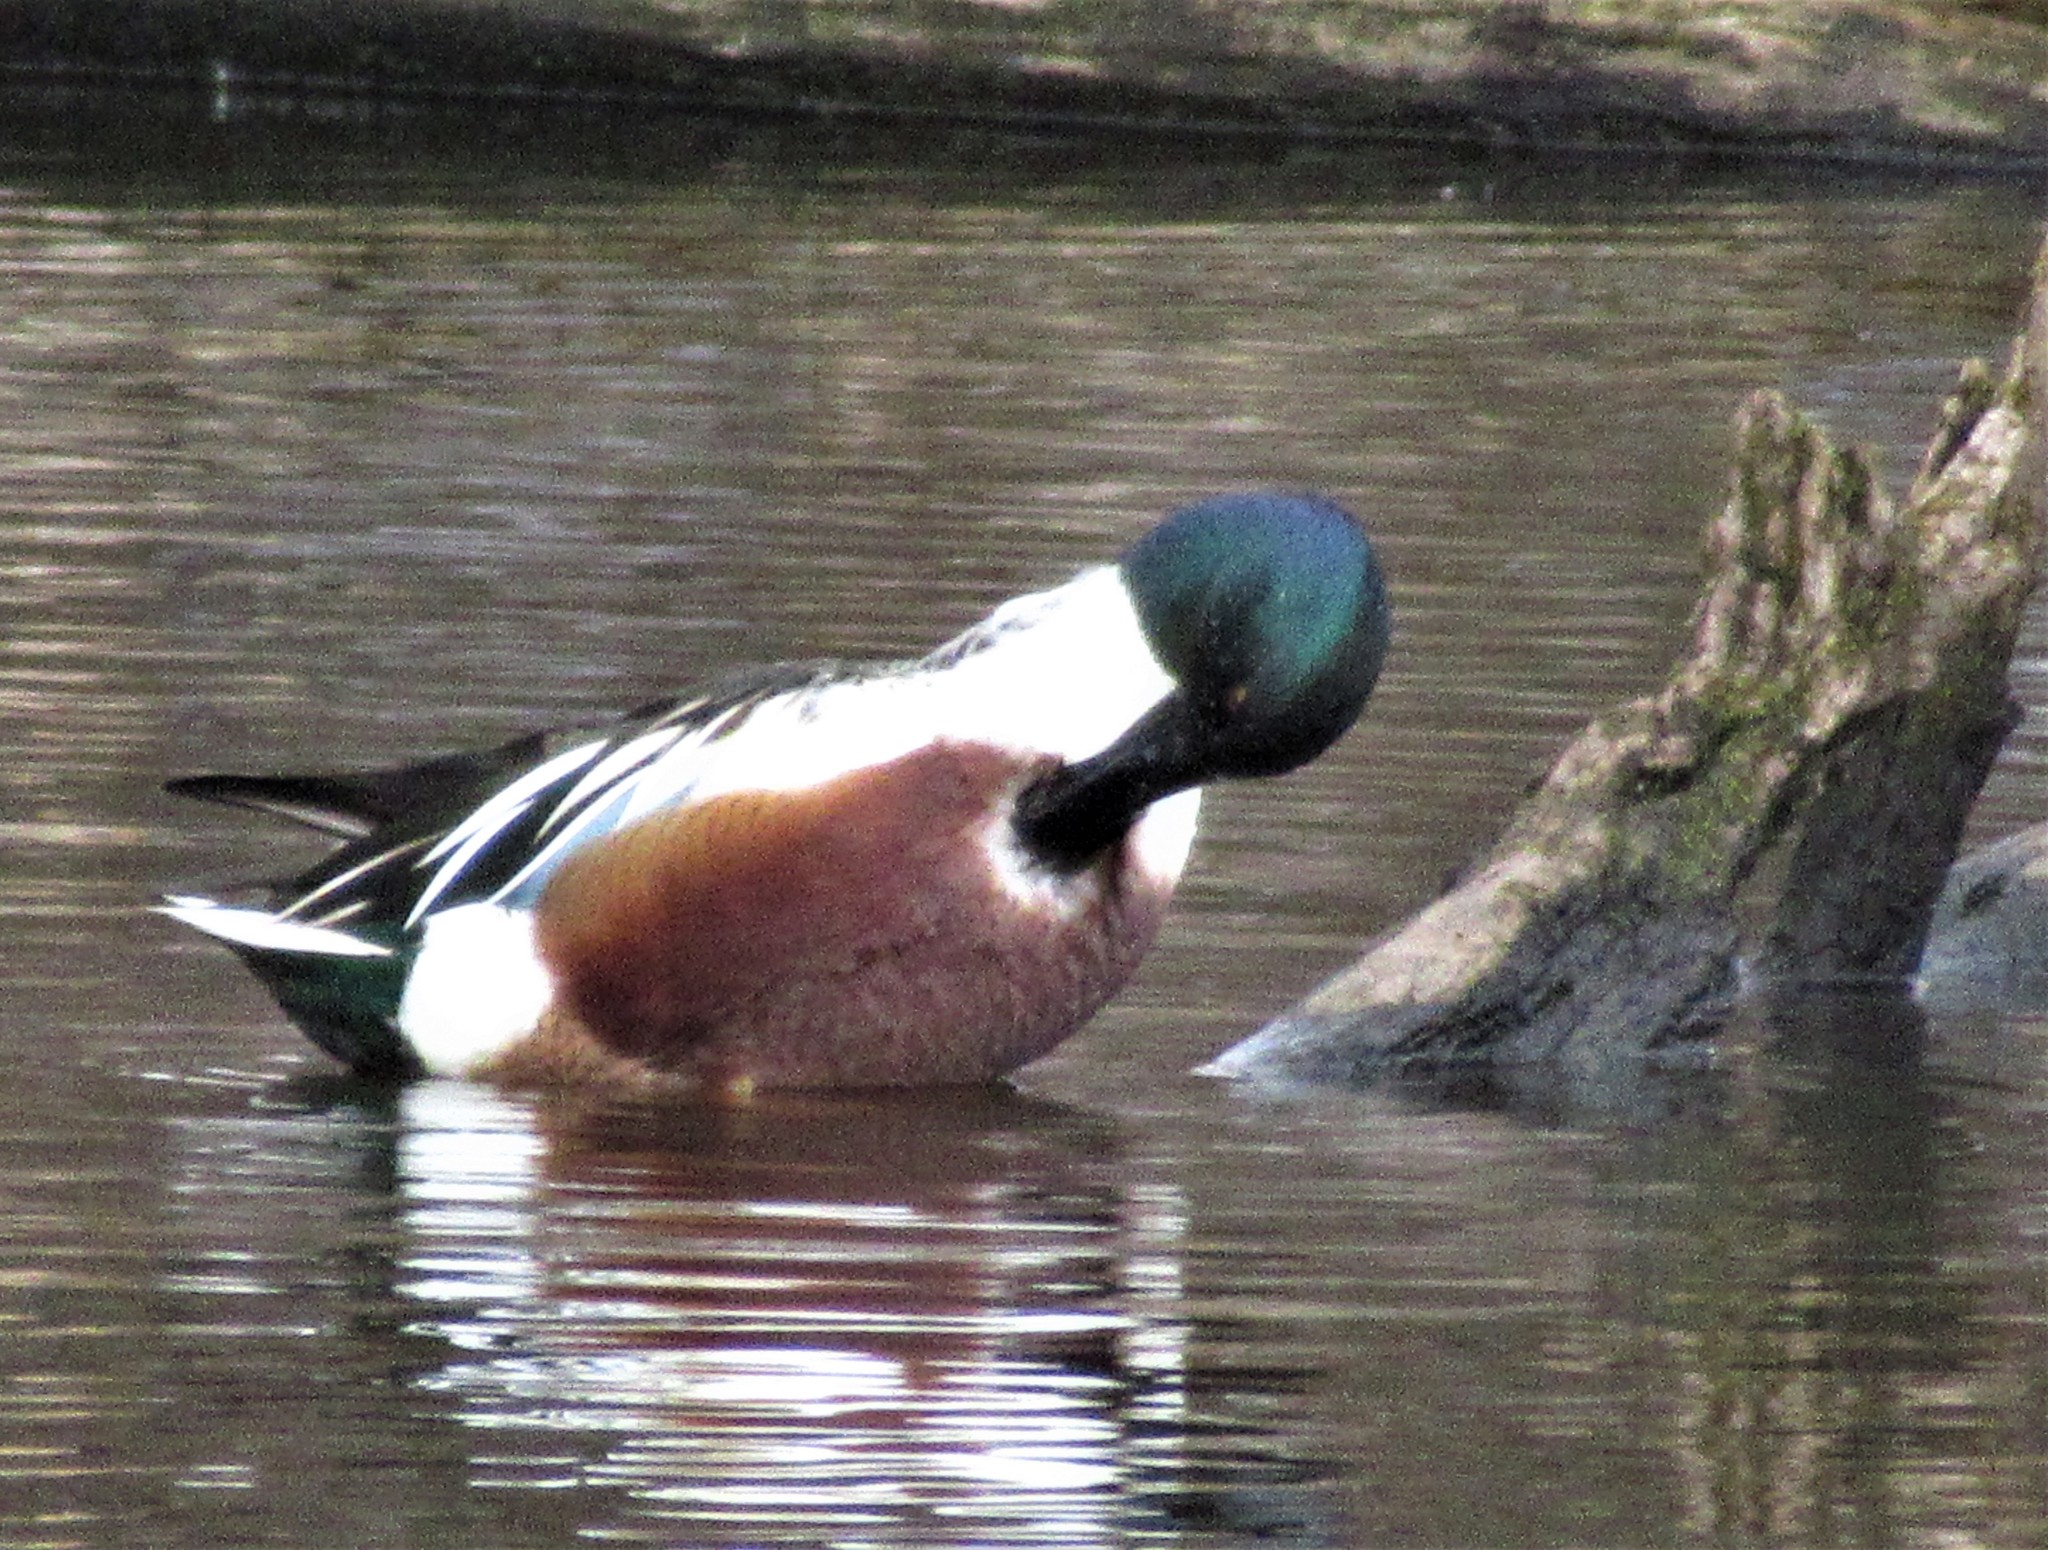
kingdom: Animalia
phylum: Chordata
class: Aves
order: Anseriformes
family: Anatidae
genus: Spatula
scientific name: Spatula clypeata
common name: Northern shoveler
